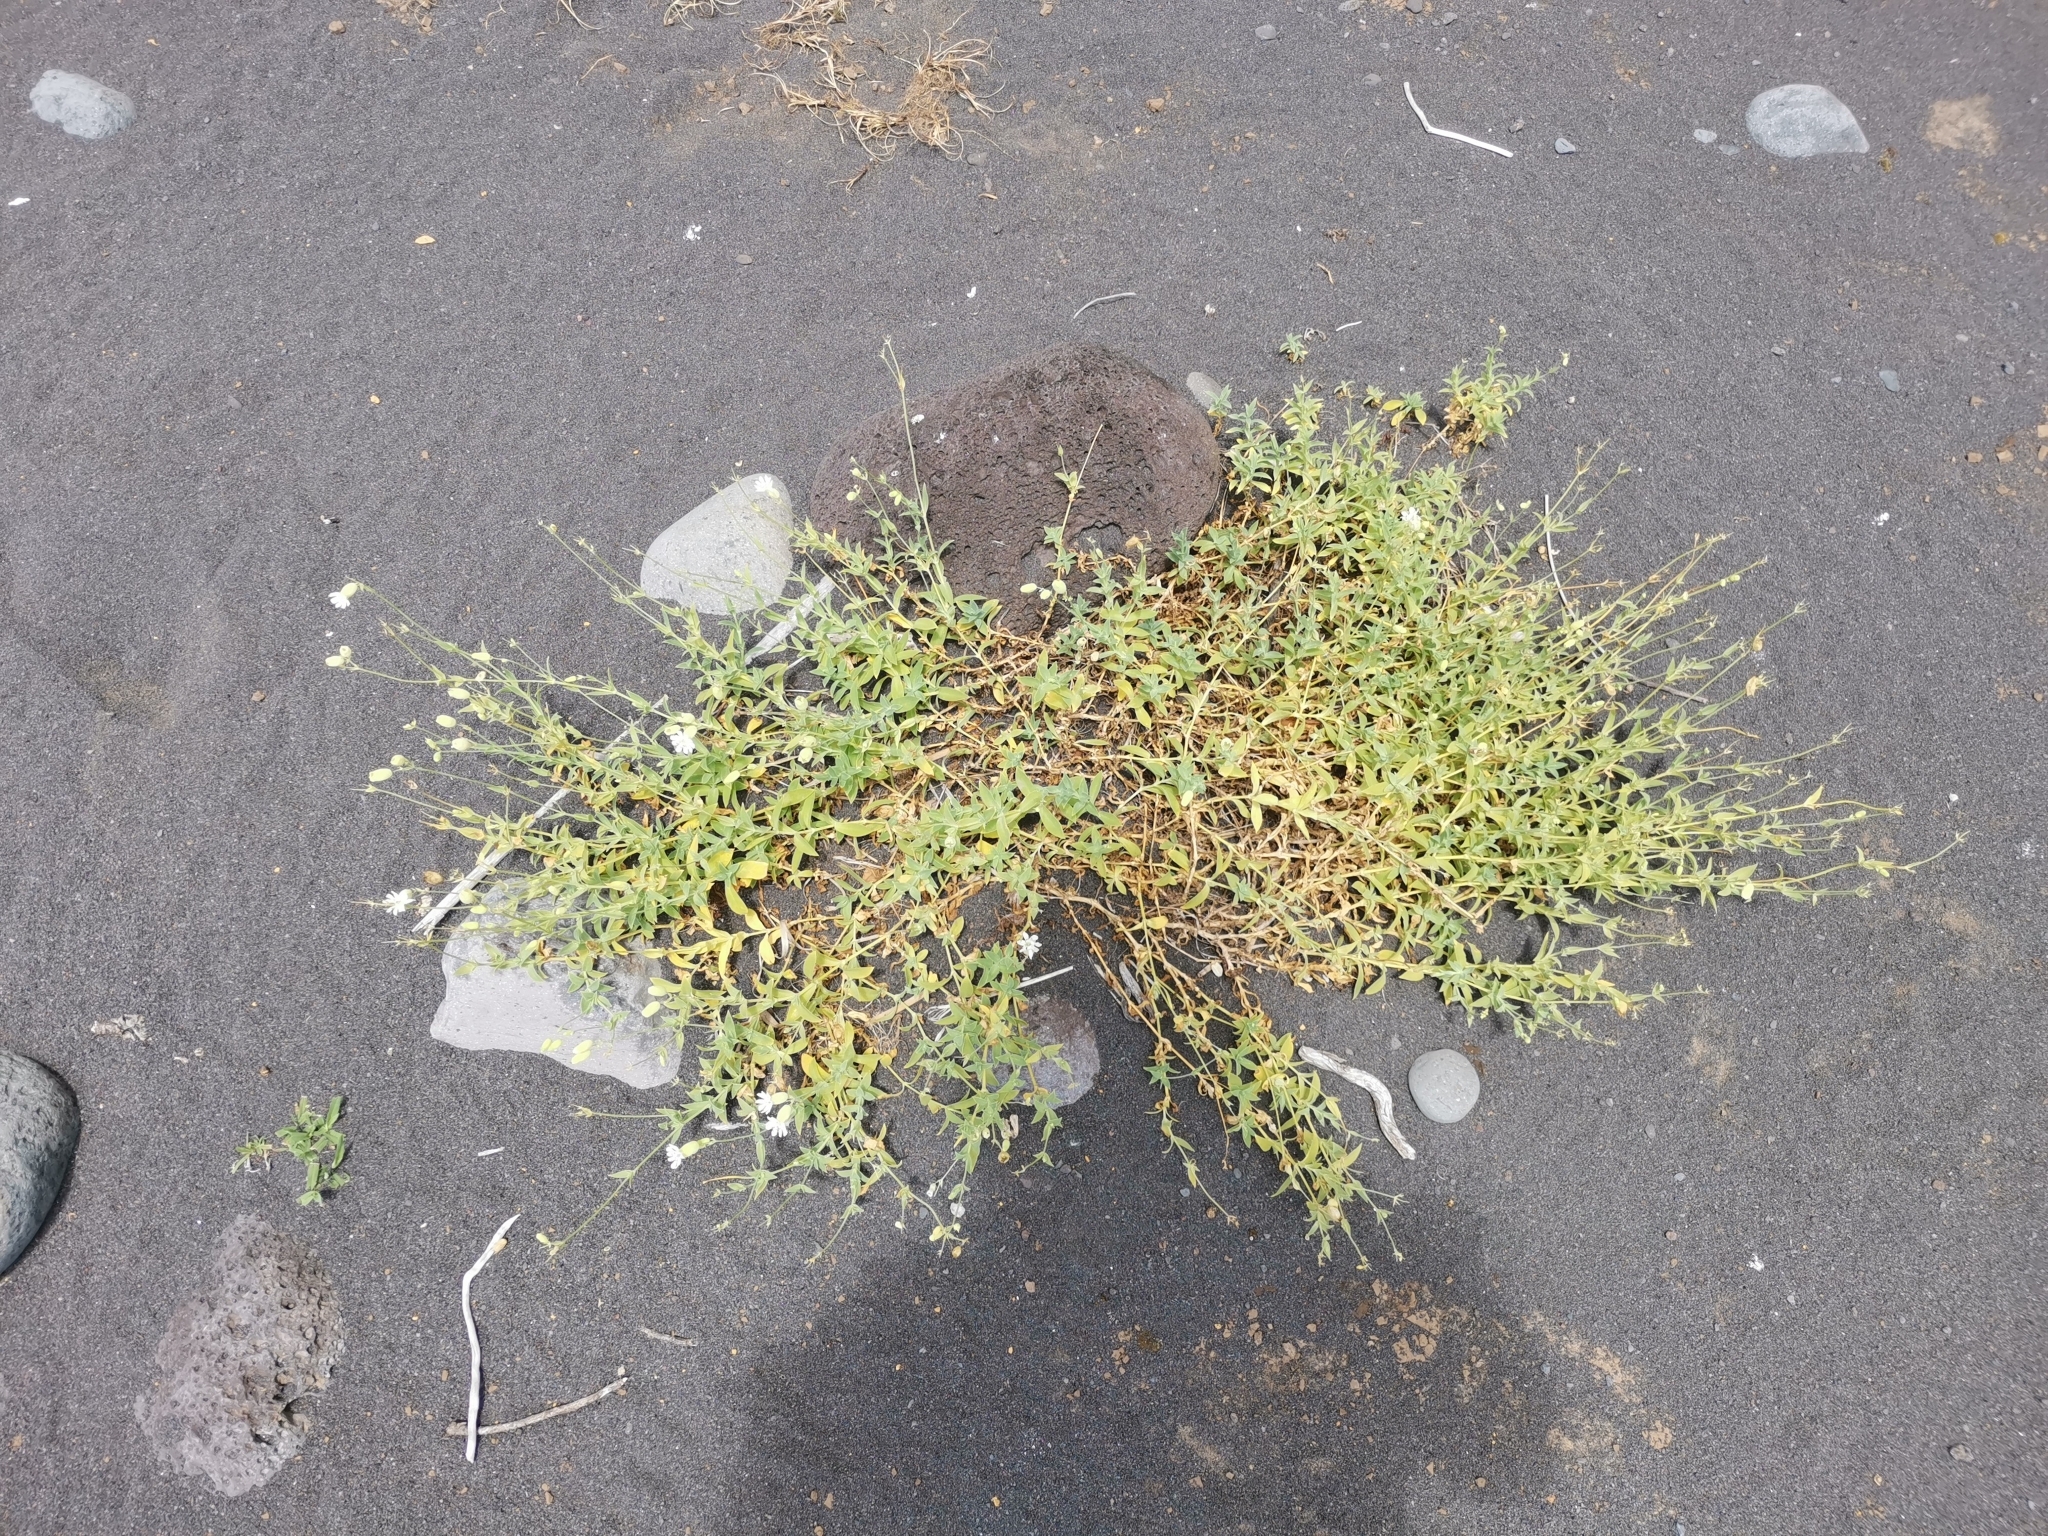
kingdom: Plantae
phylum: Tracheophyta
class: Magnoliopsida
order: Caryophyllales
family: Caryophyllaceae
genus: Silene
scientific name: Silene uniflora
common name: Sea campion
